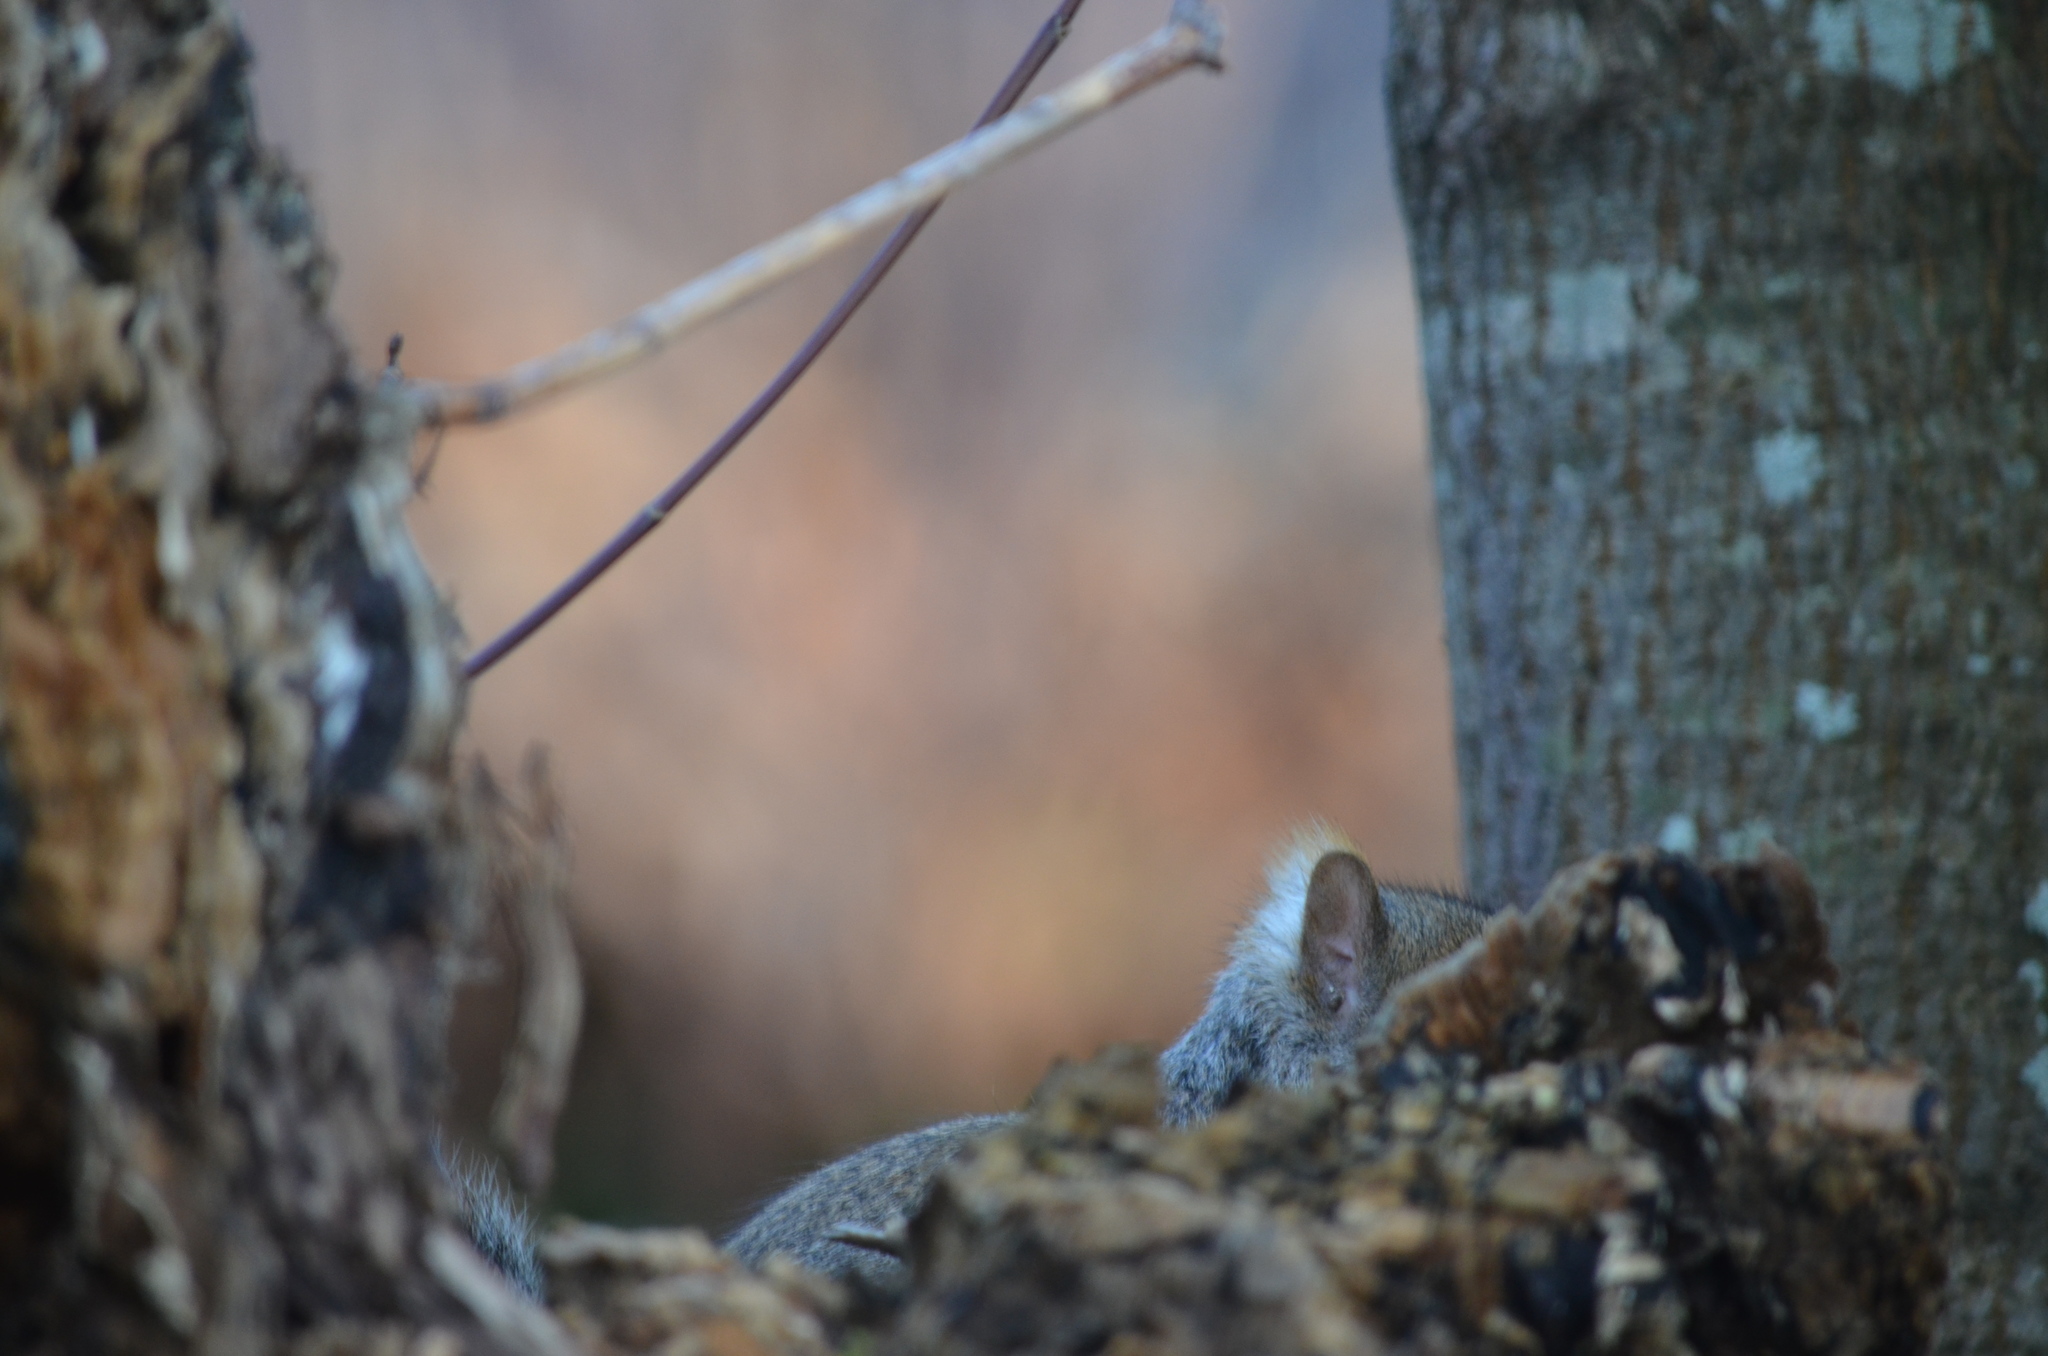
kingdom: Animalia
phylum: Chordata
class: Mammalia
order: Rodentia
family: Sciuridae
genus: Sciurus
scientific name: Sciurus carolinensis
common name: Eastern gray squirrel
